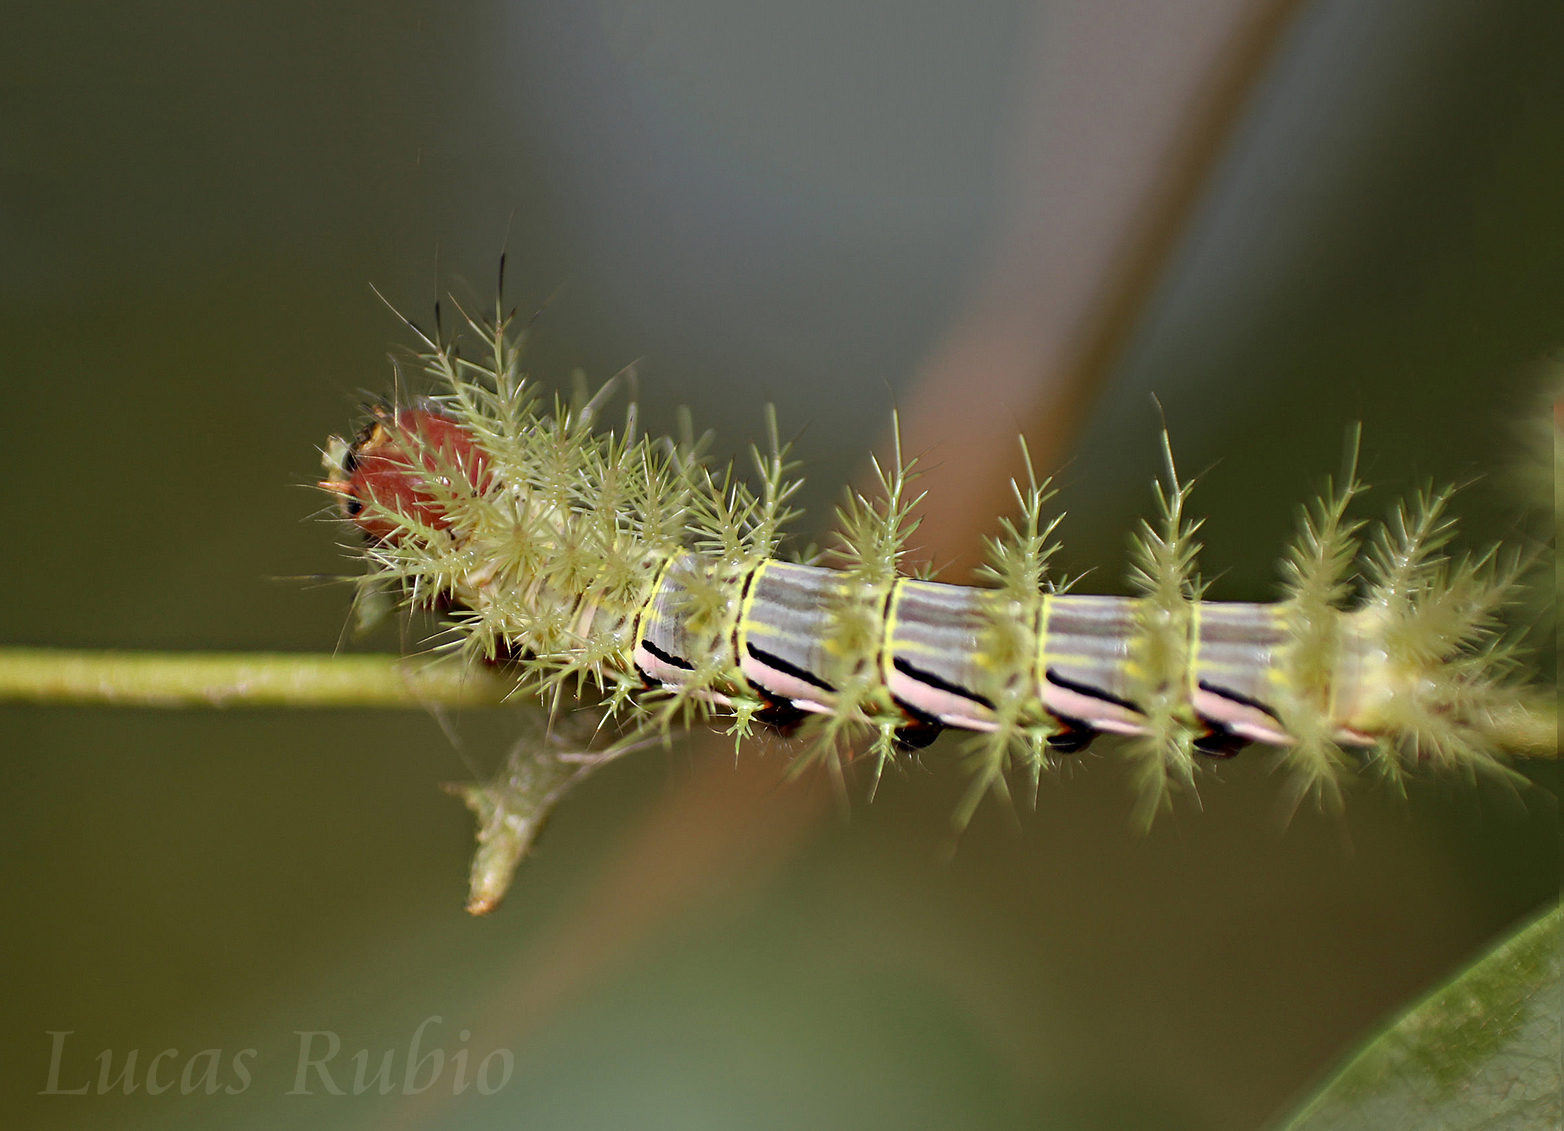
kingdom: Animalia
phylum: Arthropoda
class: Insecta
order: Lepidoptera
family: Saturniidae
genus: Automeris
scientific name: Automeris naranja
